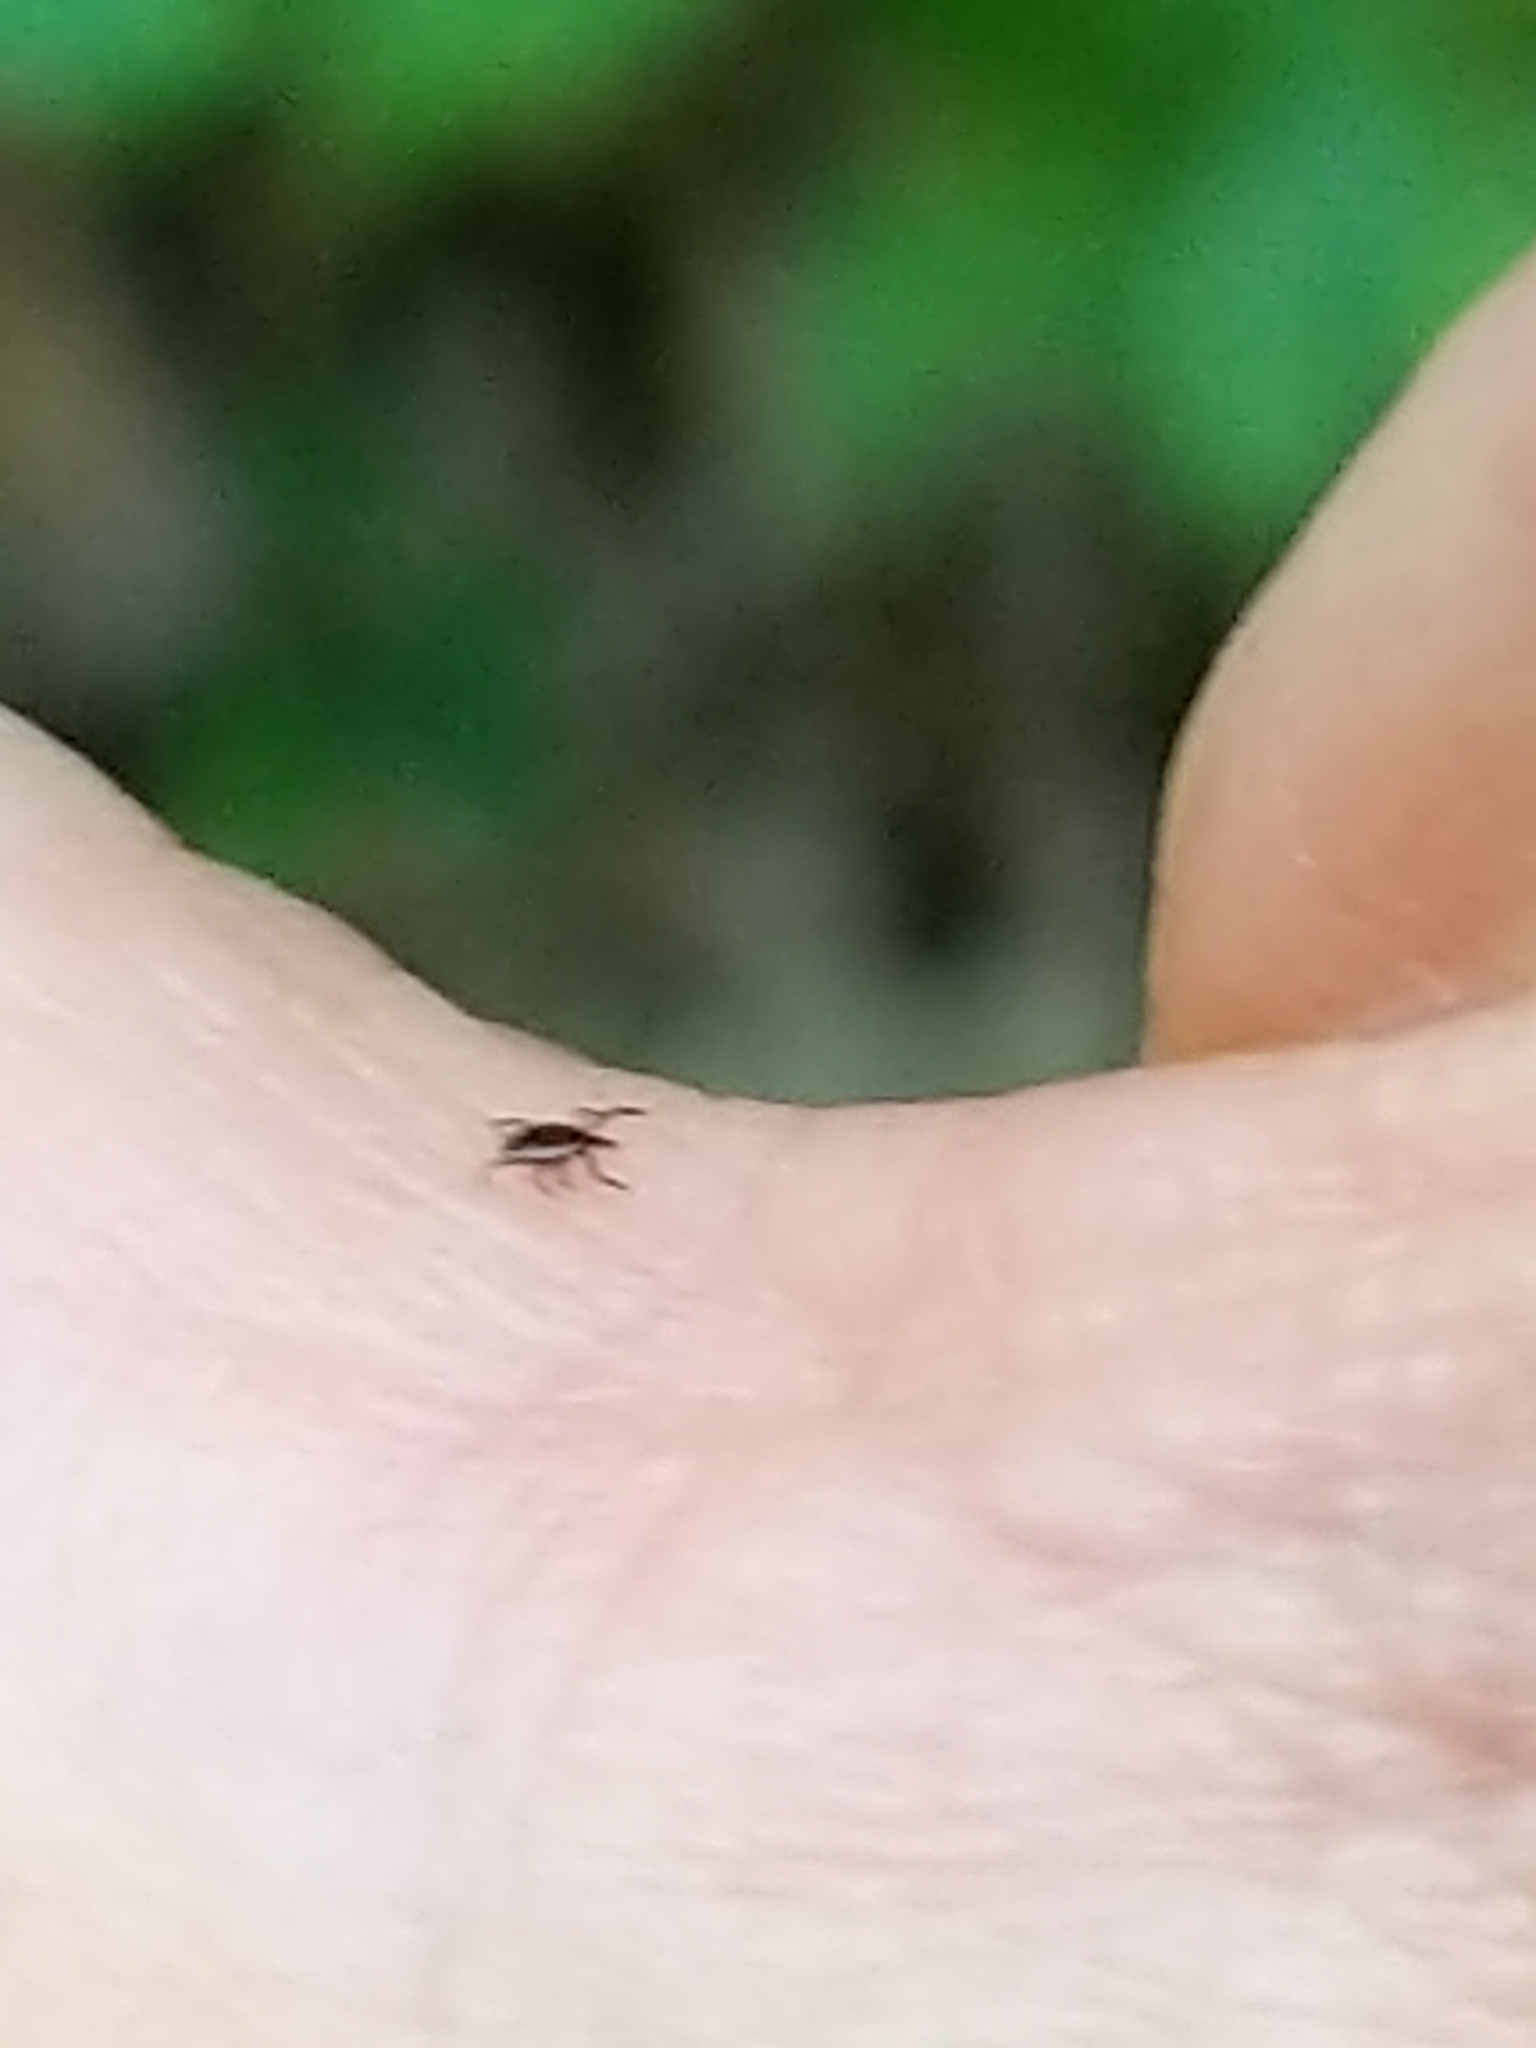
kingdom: Animalia
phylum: Arthropoda
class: Arachnida
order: Ixodida
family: Ixodidae
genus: Ixodes
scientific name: Ixodes scapularis
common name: Black legged tick
